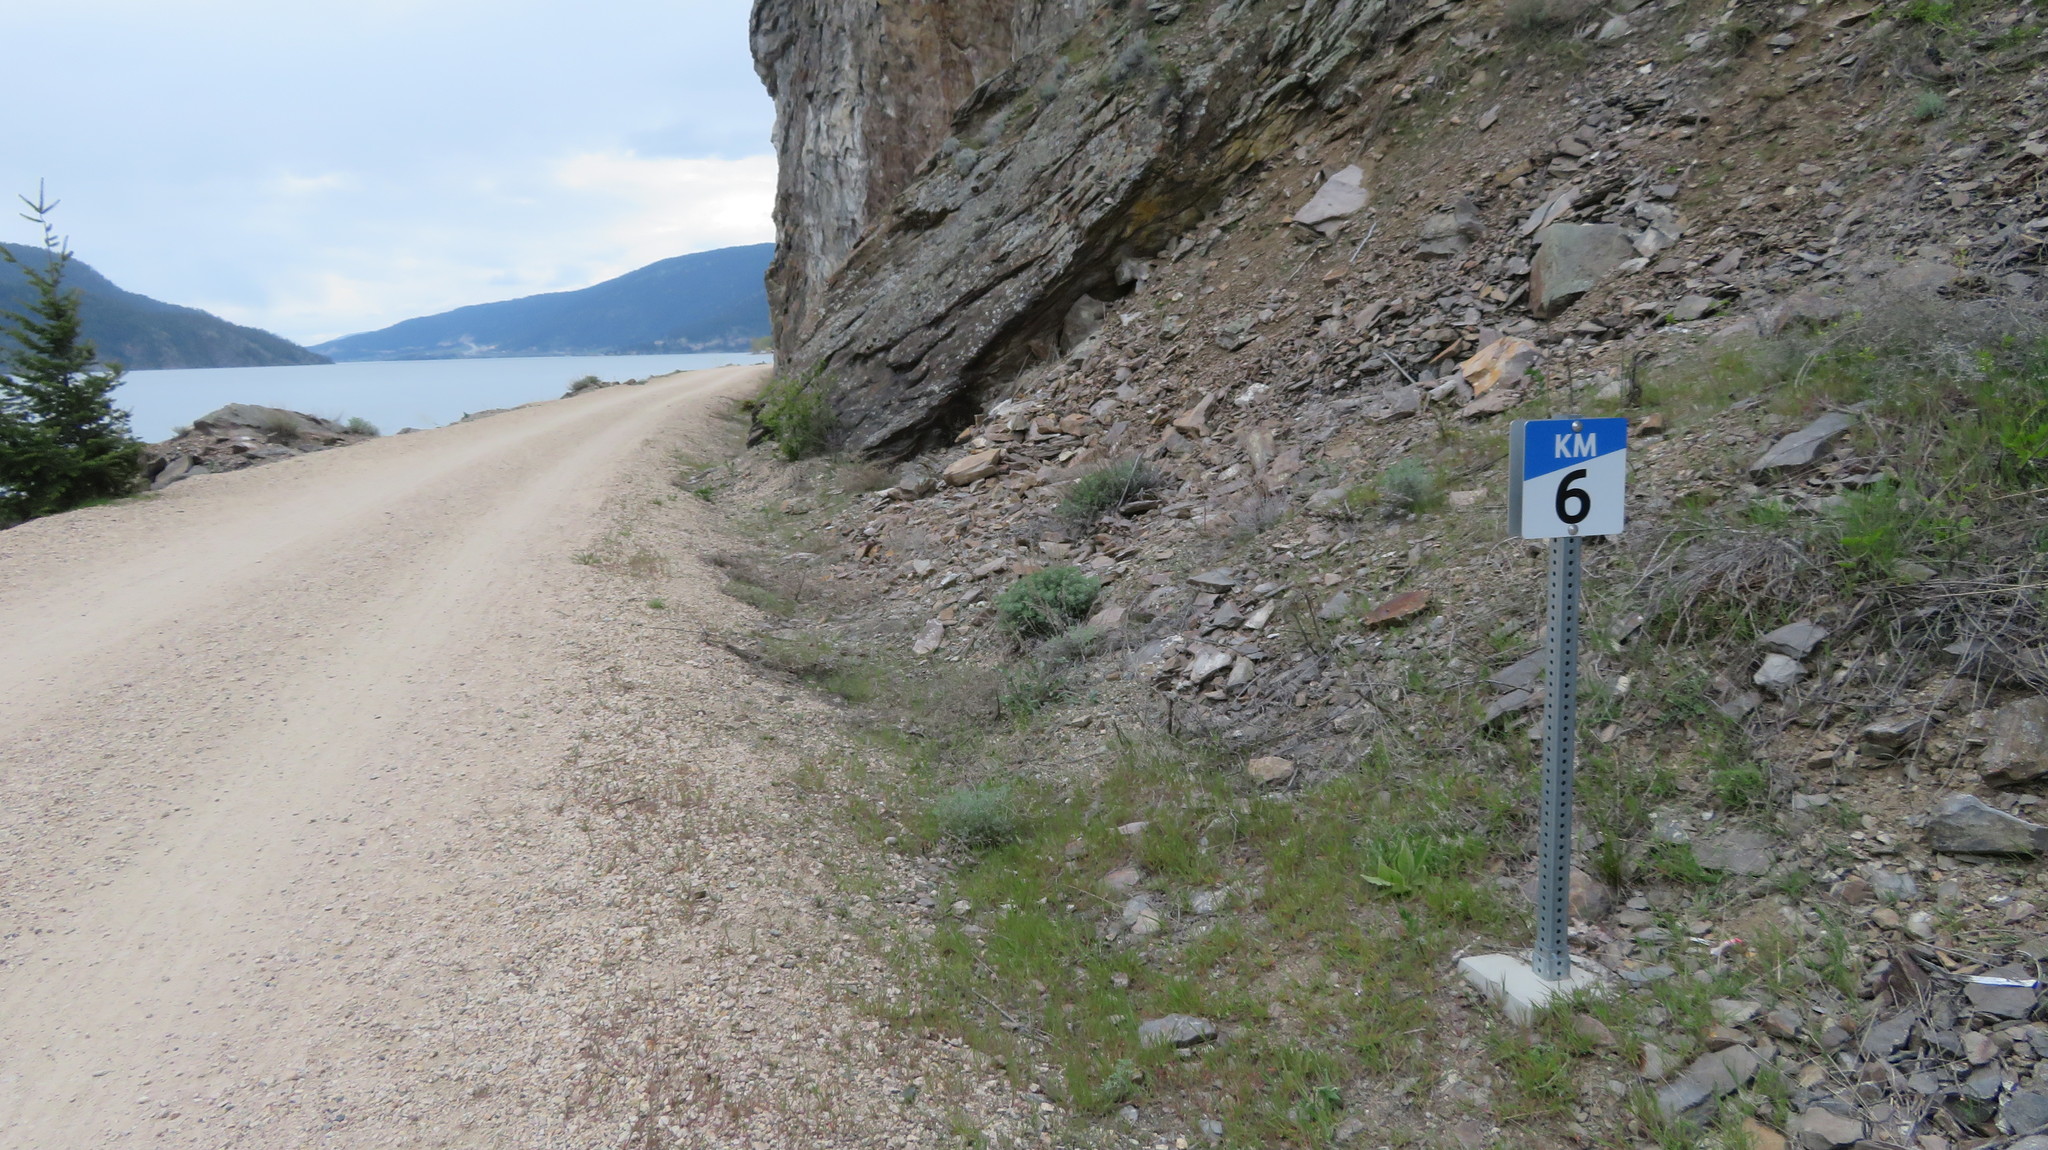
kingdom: Animalia
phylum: Chordata
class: Mammalia
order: Rodentia
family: Sciuridae
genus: Marmota
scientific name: Marmota flaviventris
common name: Yellow-bellied marmot
